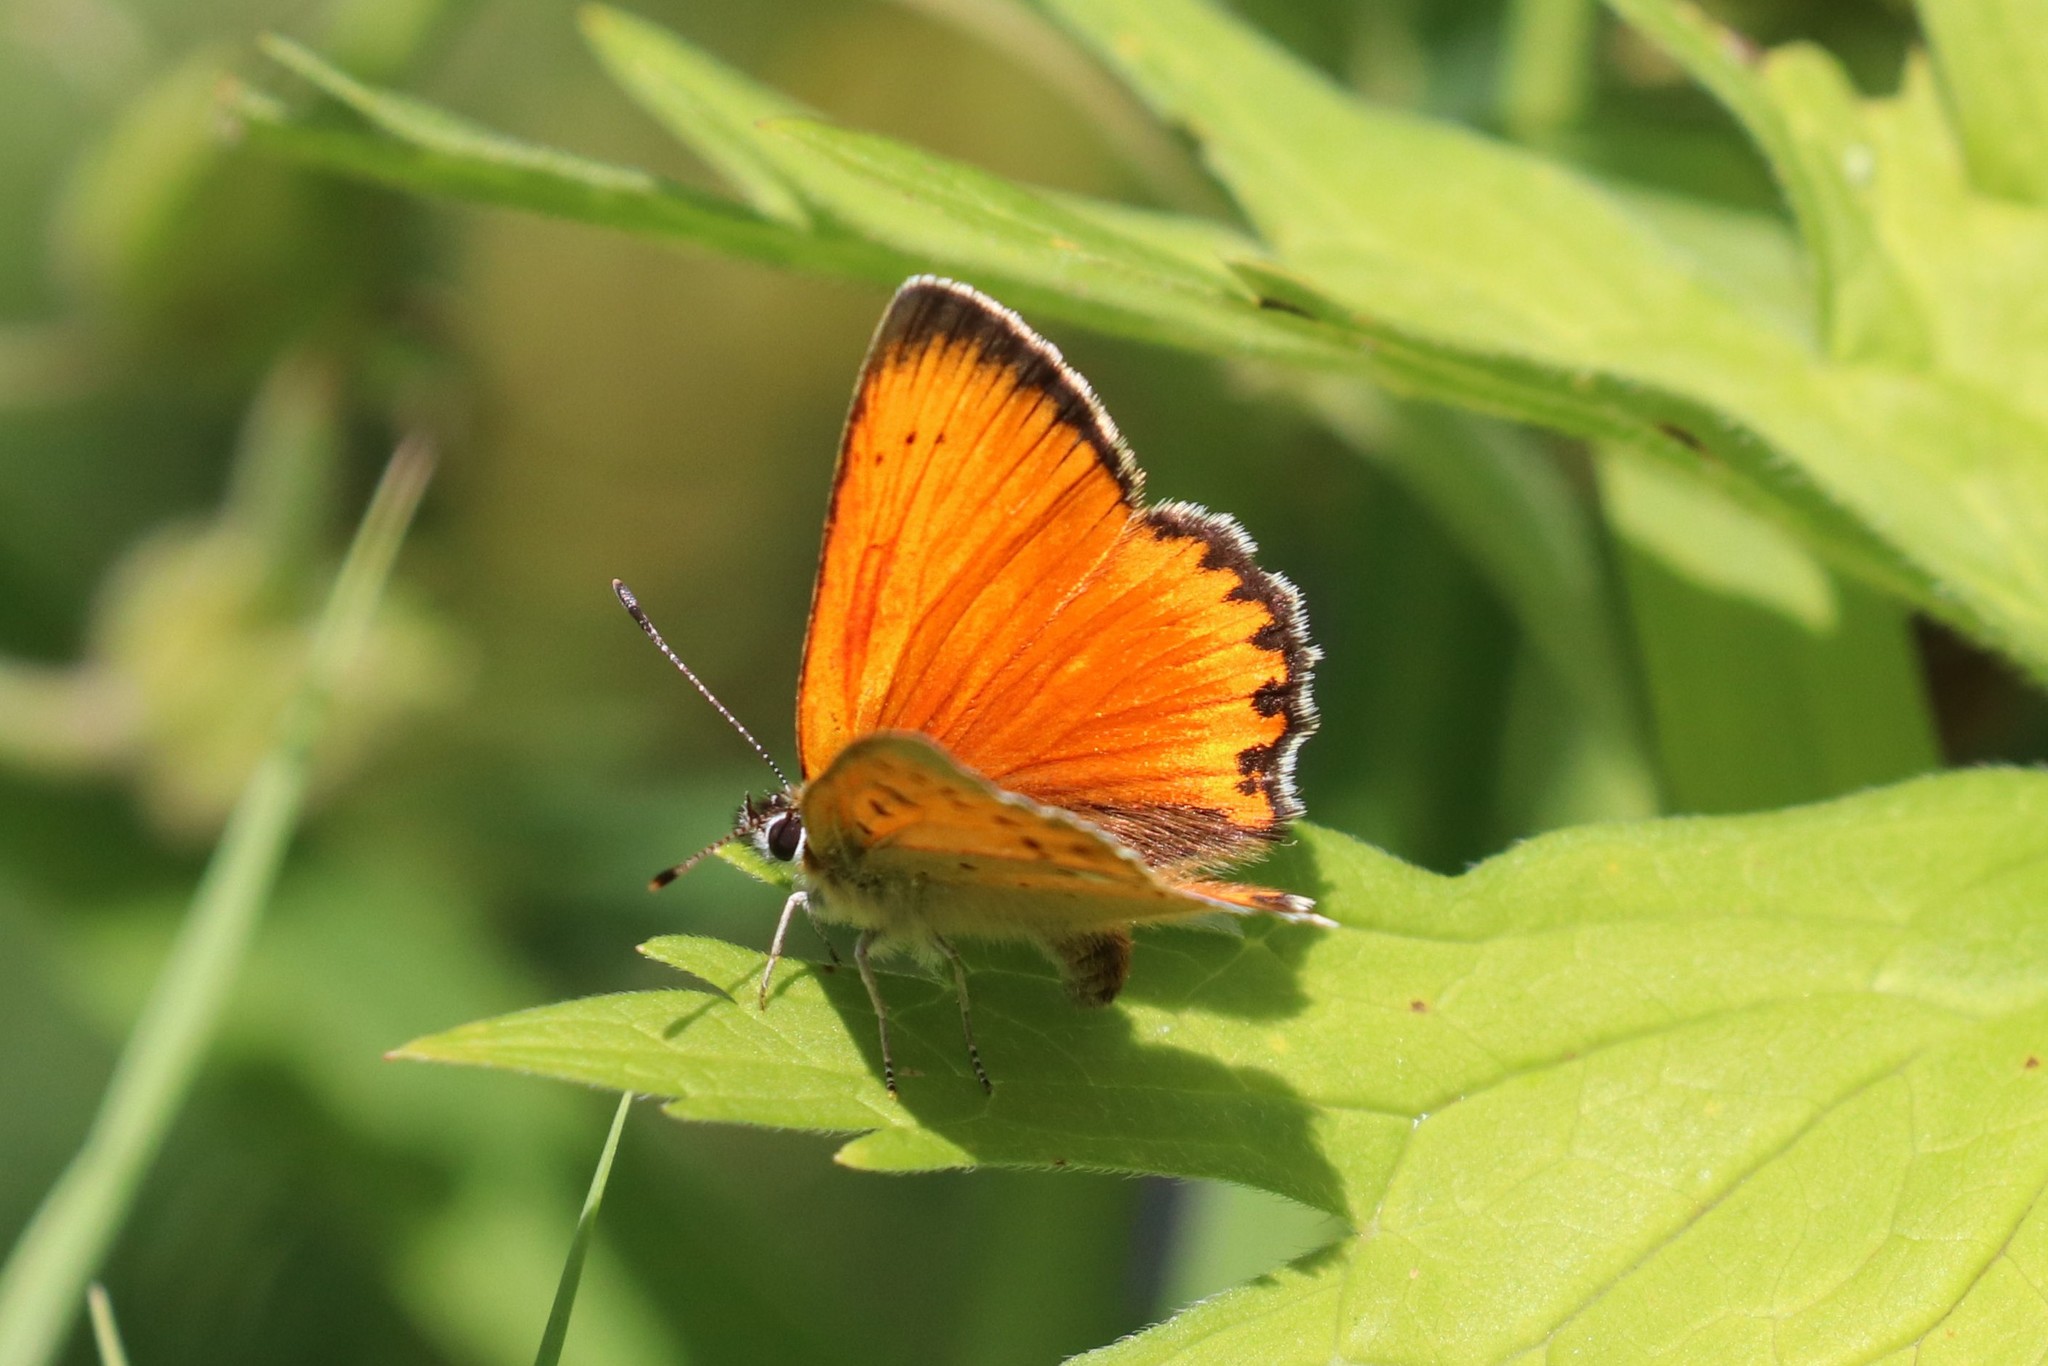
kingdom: Animalia
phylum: Arthropoda
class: Insecta
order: Lepidoptera
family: Lycaenidae
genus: Lycaena
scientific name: Lycaena virgaureae
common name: Scarce copper
